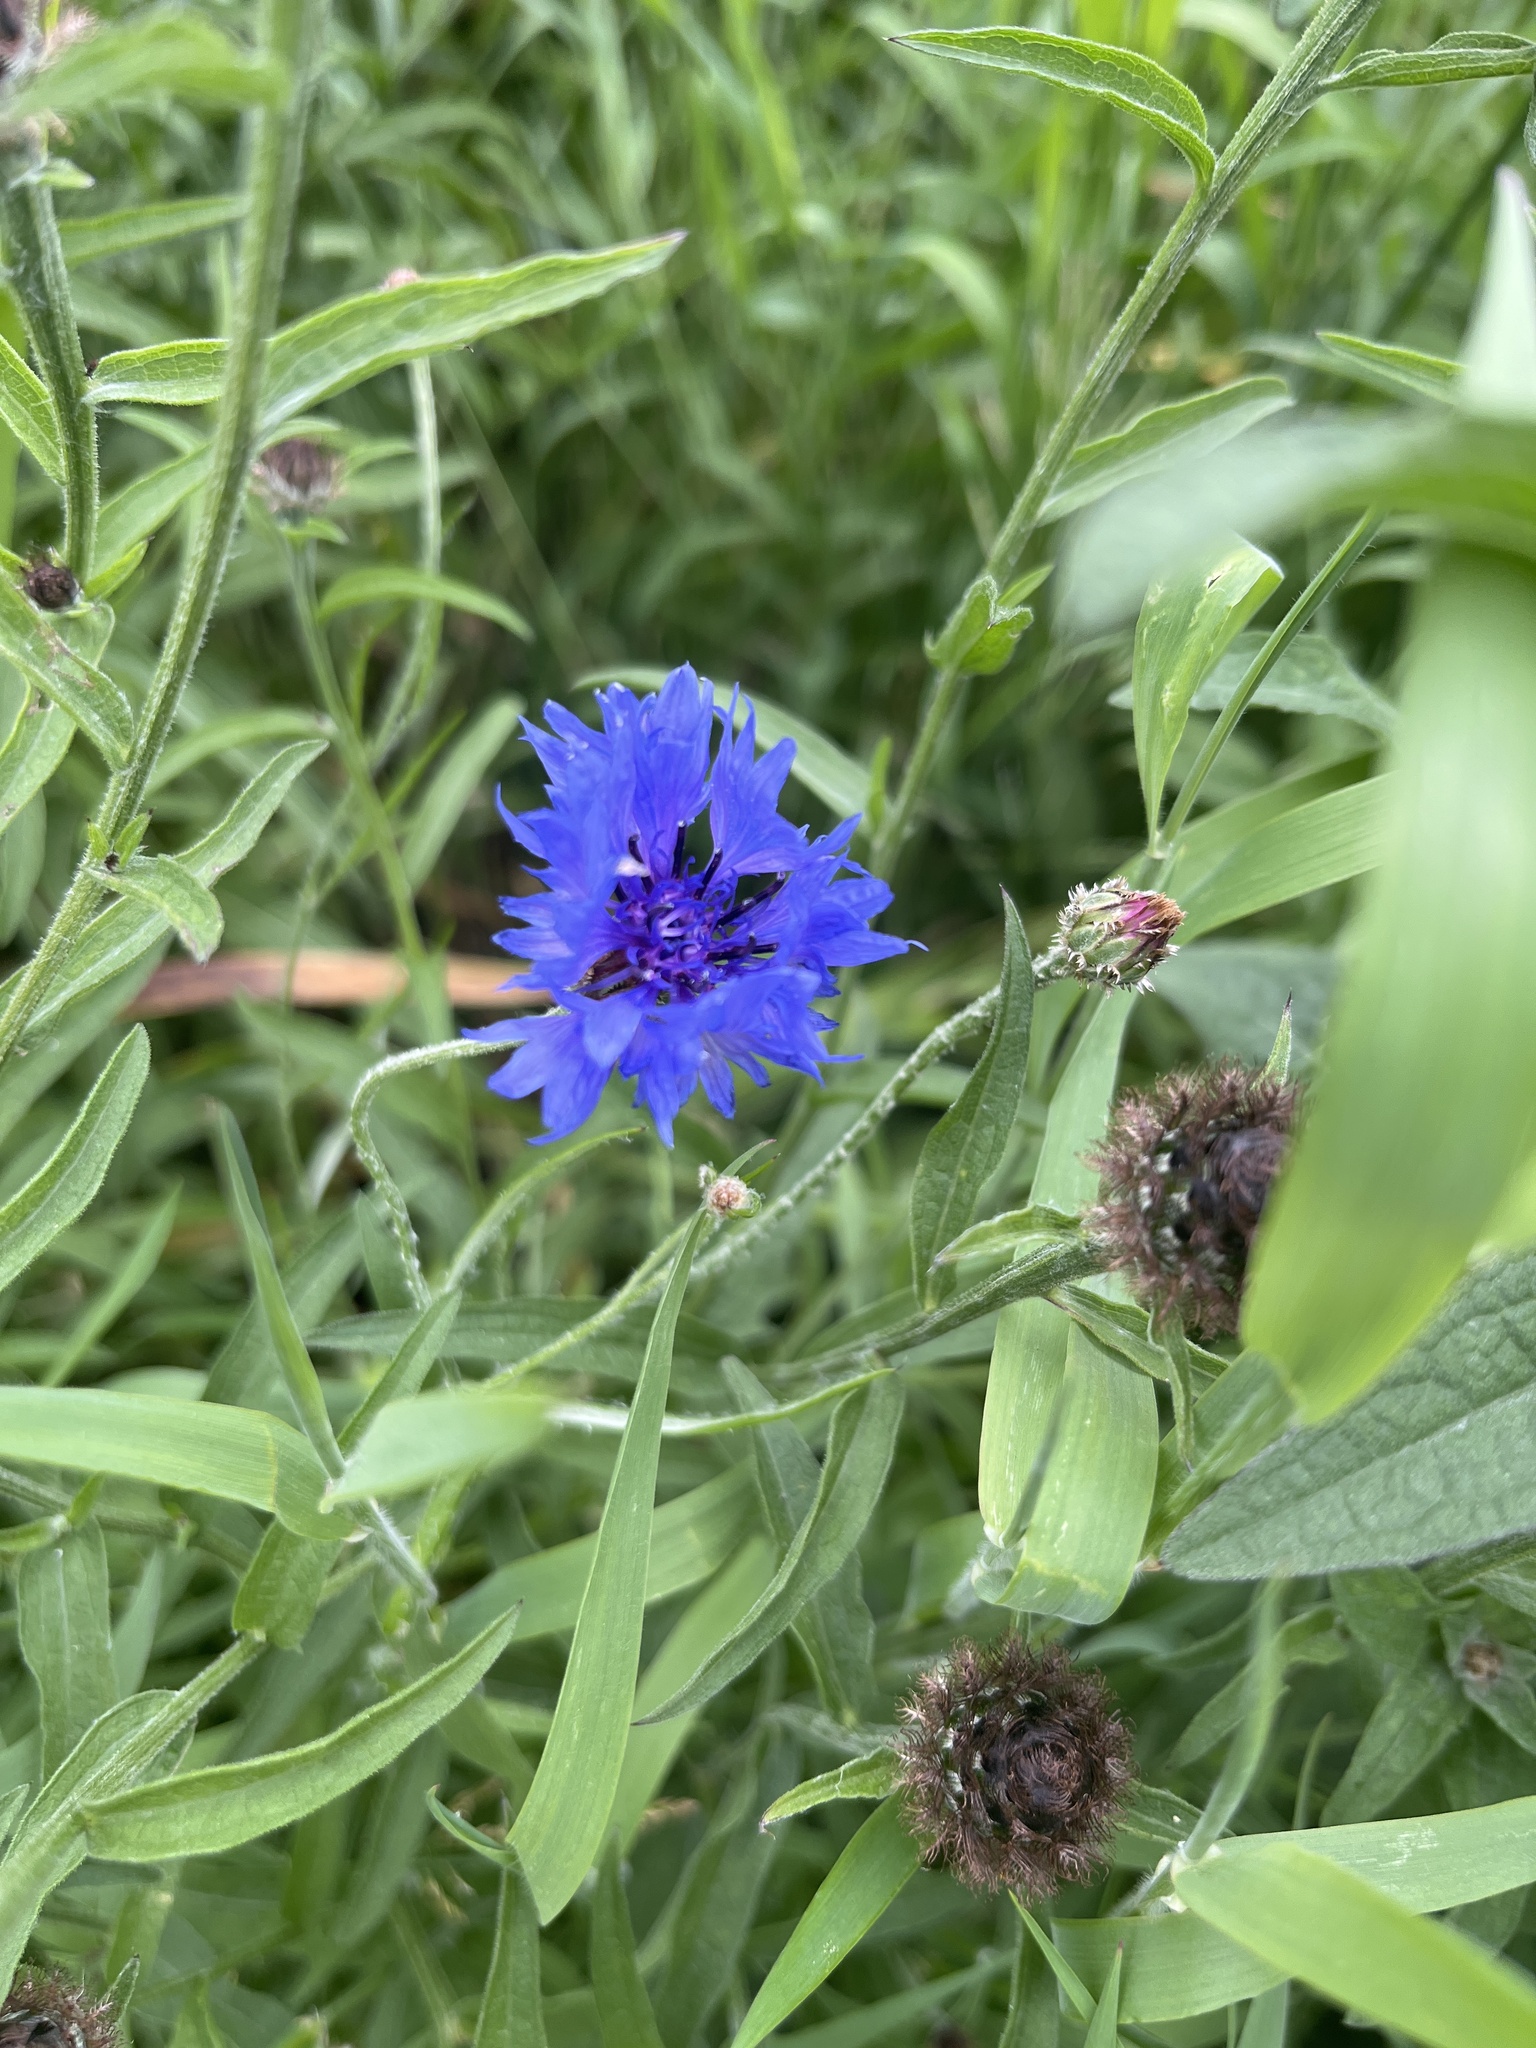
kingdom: Plantae
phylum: Tracheophyta
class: Magnoliopsida
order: Asterales
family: Asteraceae
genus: Centaurea
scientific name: Centaurea cyanus
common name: Cornflower
